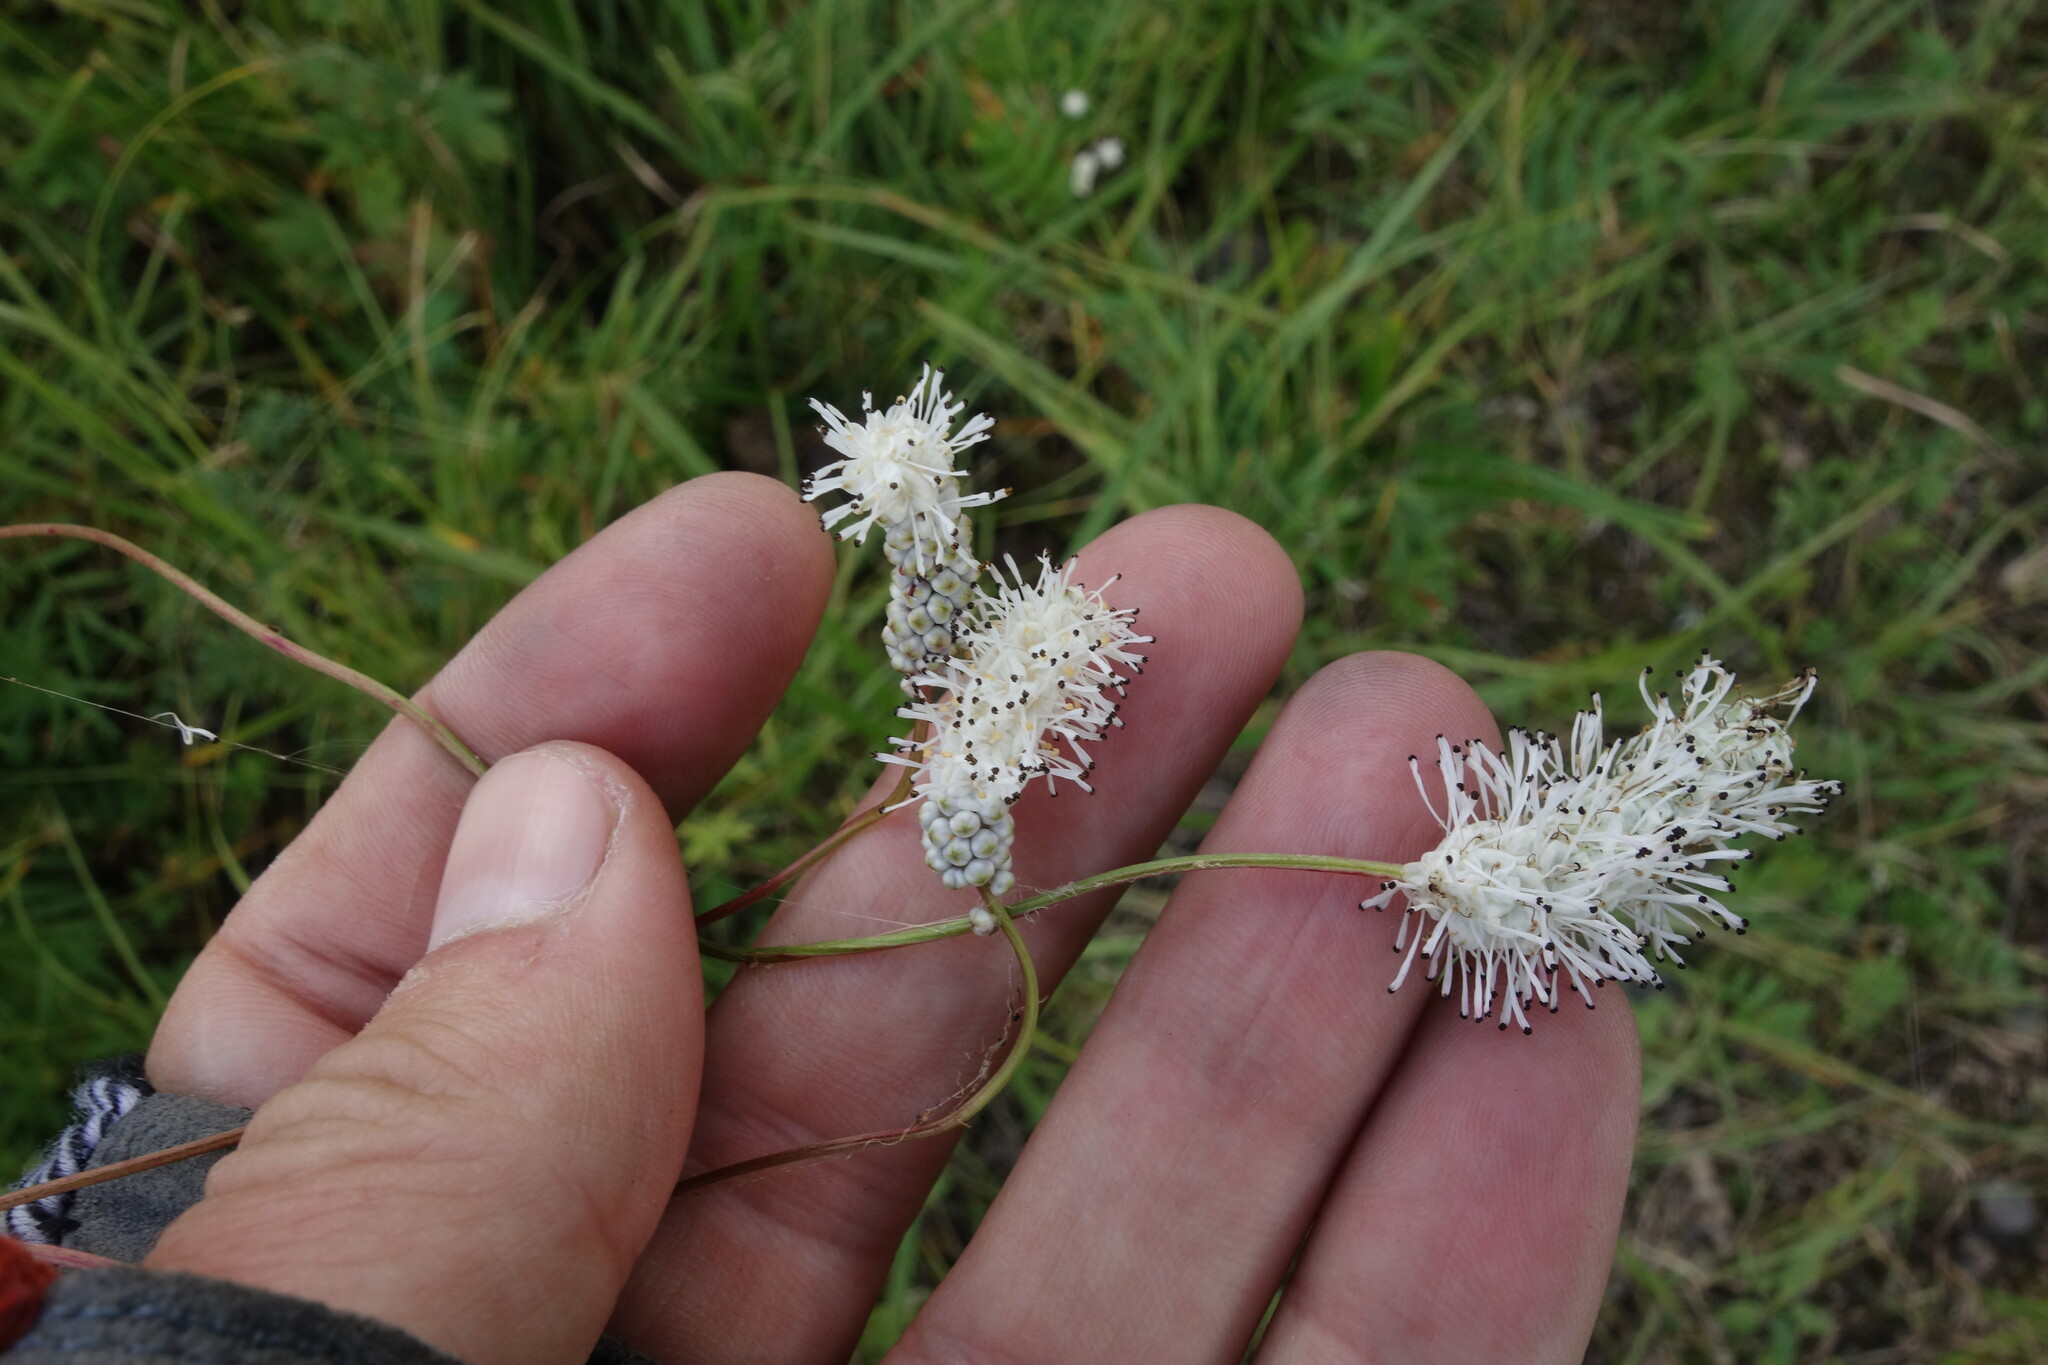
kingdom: Plantae
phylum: Tracheophyta
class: Magnoliopsida
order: Rosales
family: Rosaceae
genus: Poterium
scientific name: Poterium tenuifolium
